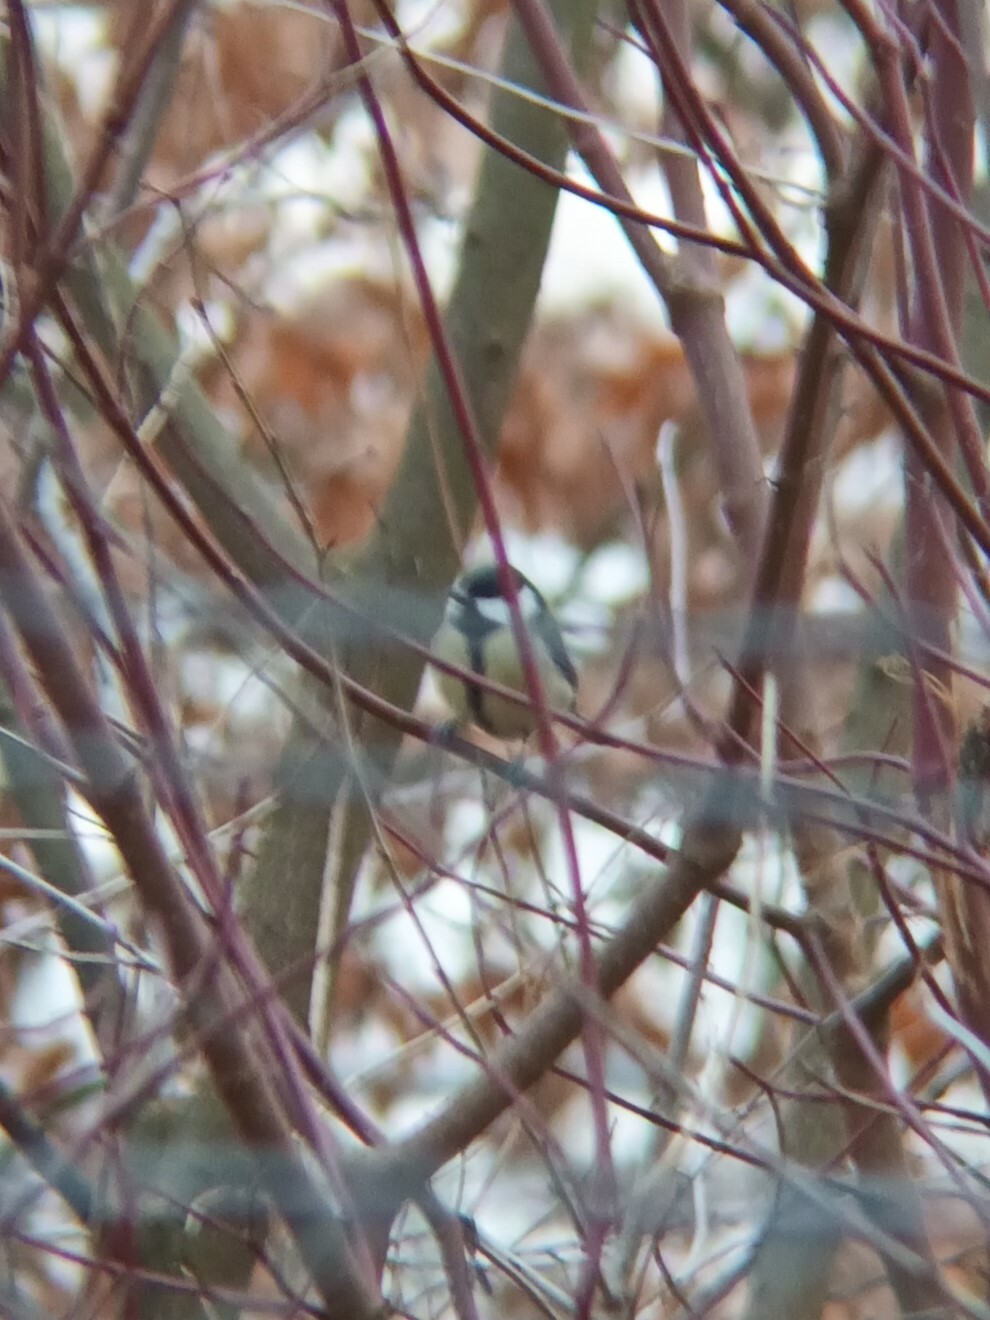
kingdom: Animalia
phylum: Chordata
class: Aves
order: Passeriformes
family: Paridae
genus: Parus
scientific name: Parus major
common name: Great tit
